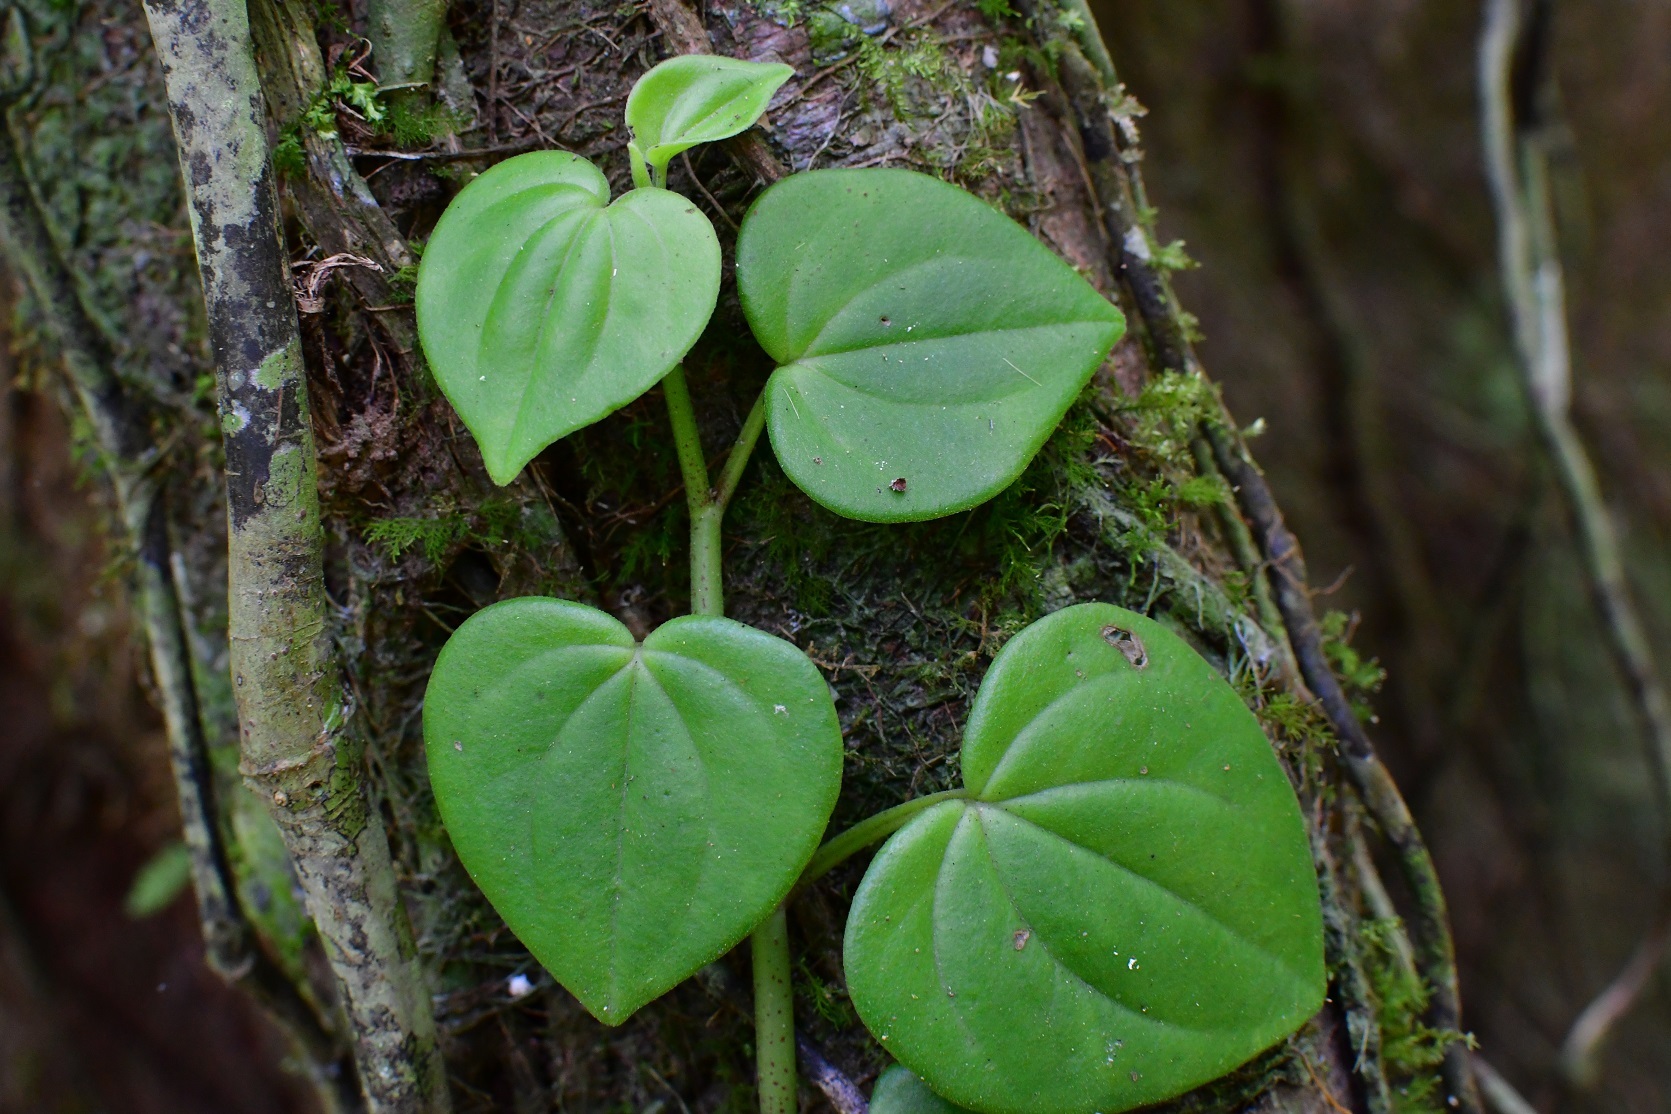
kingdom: Plantae
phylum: Tracheophyta
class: Magnoliopsida
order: Piperales
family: Piperaceae
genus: Peperomia
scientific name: Peperomia urocarpa
